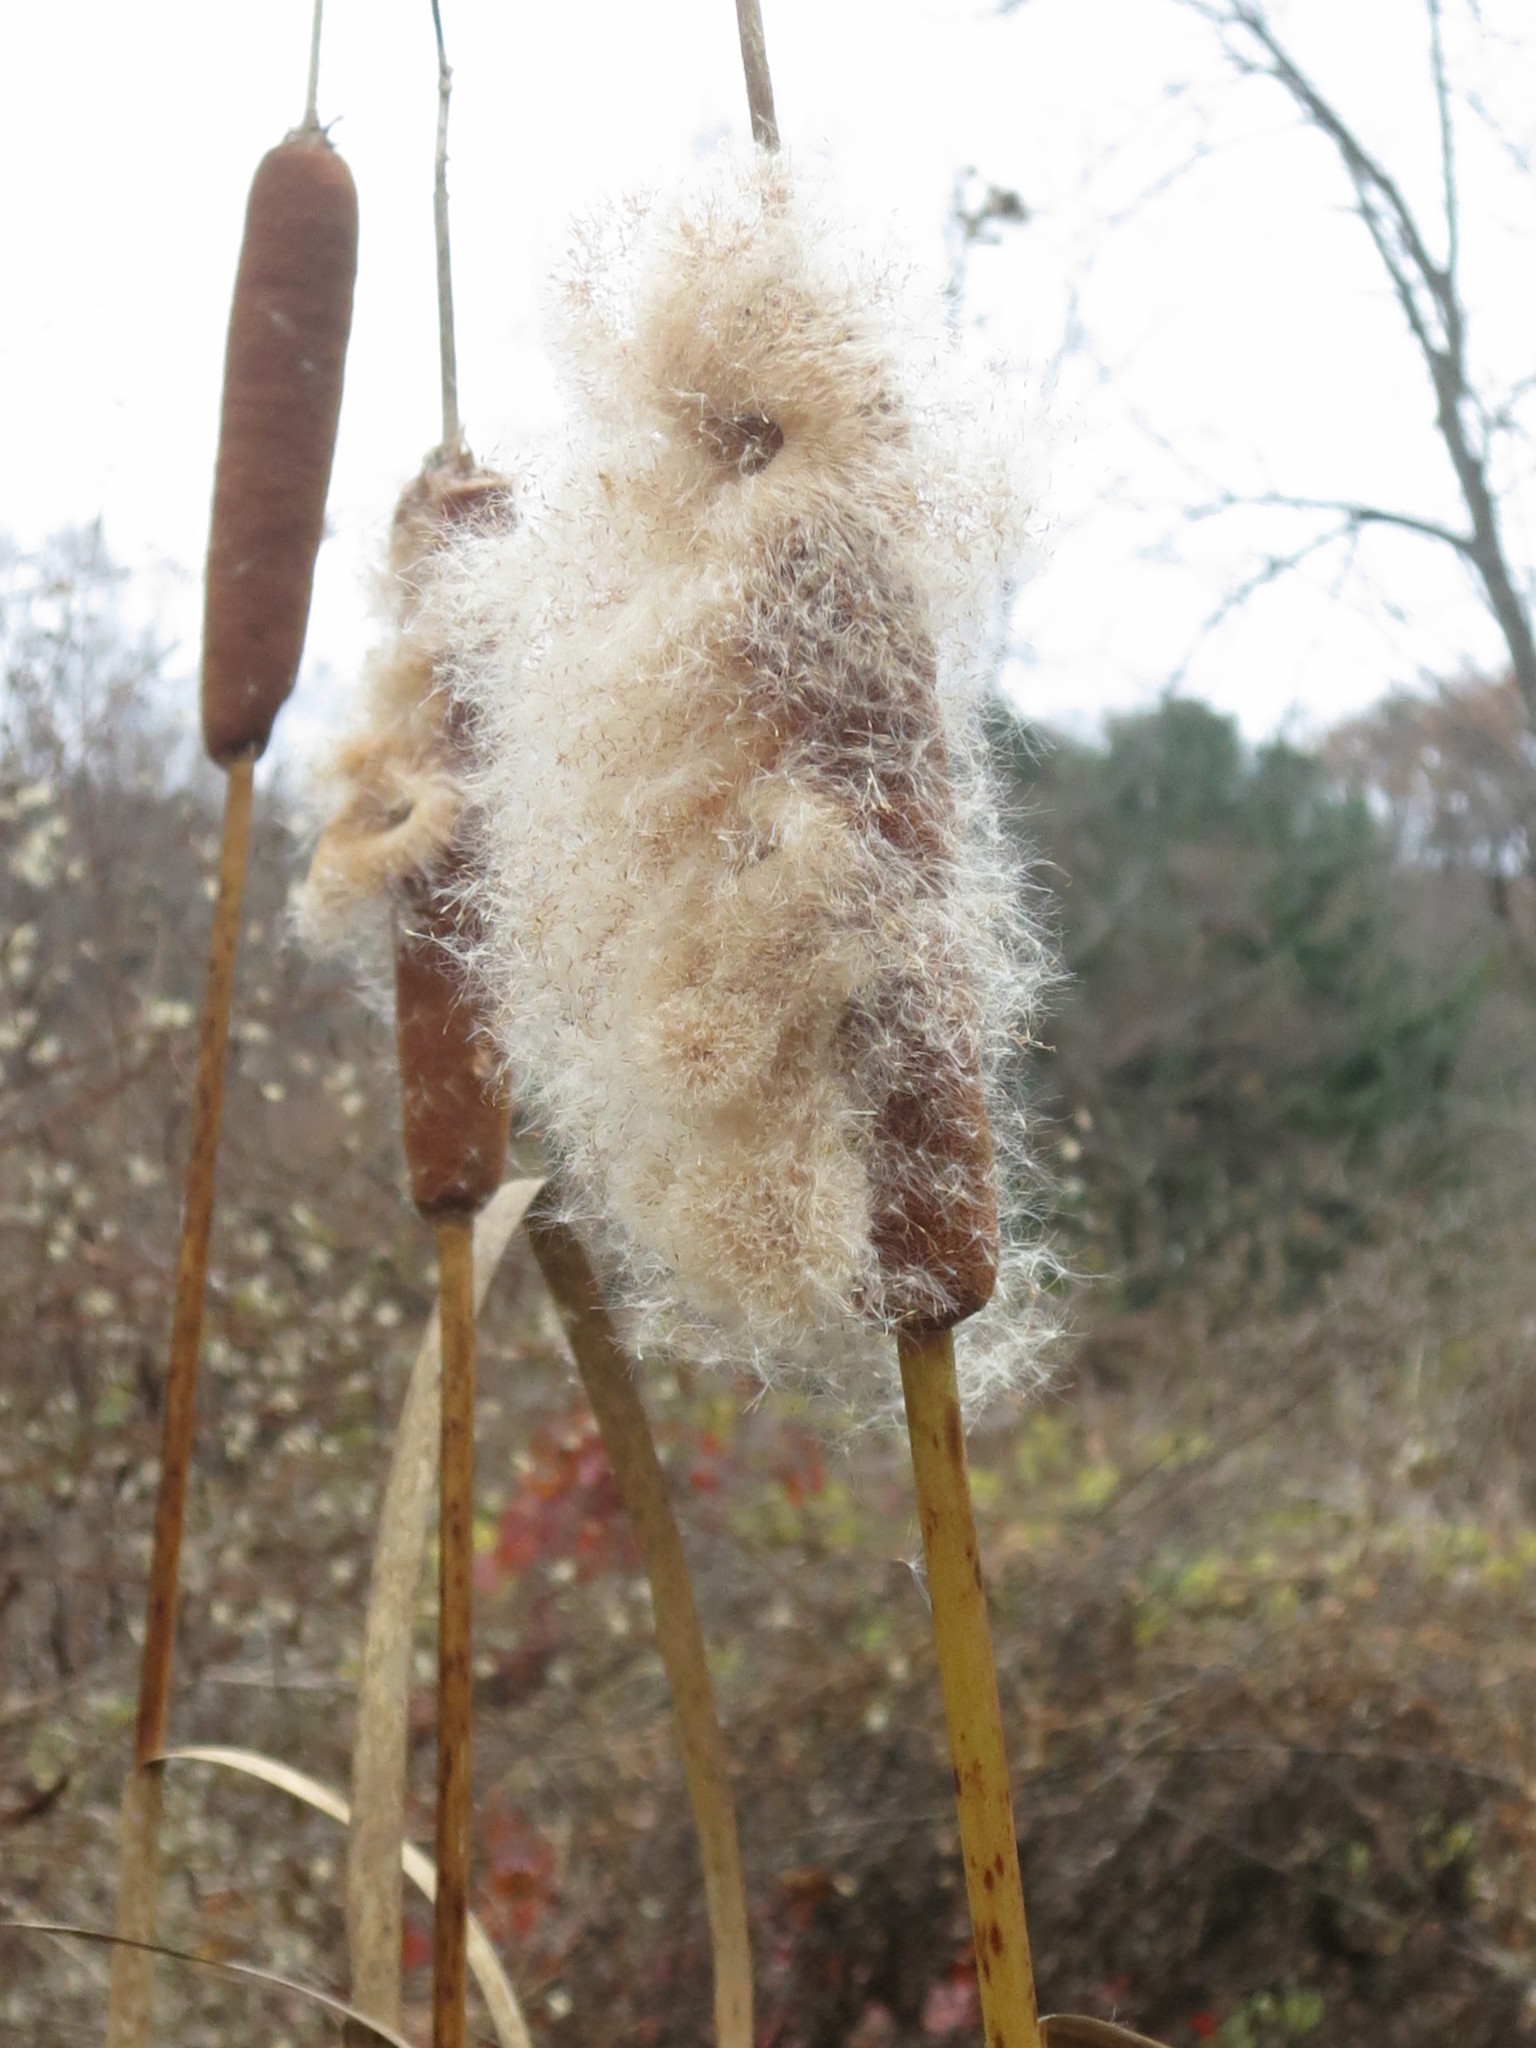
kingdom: Plantae
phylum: Tracheophyta
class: Liliopsida
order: Poales
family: Typhaceae
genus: Typha
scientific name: Typha latifolia
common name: Broadleaf cattail
